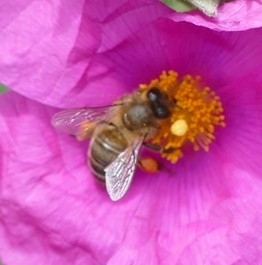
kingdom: Animalia
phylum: Arthropoda
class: Insecta
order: Hymenoptera
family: Apidae
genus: Apis
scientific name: Apis mellifera
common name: Honey bee
